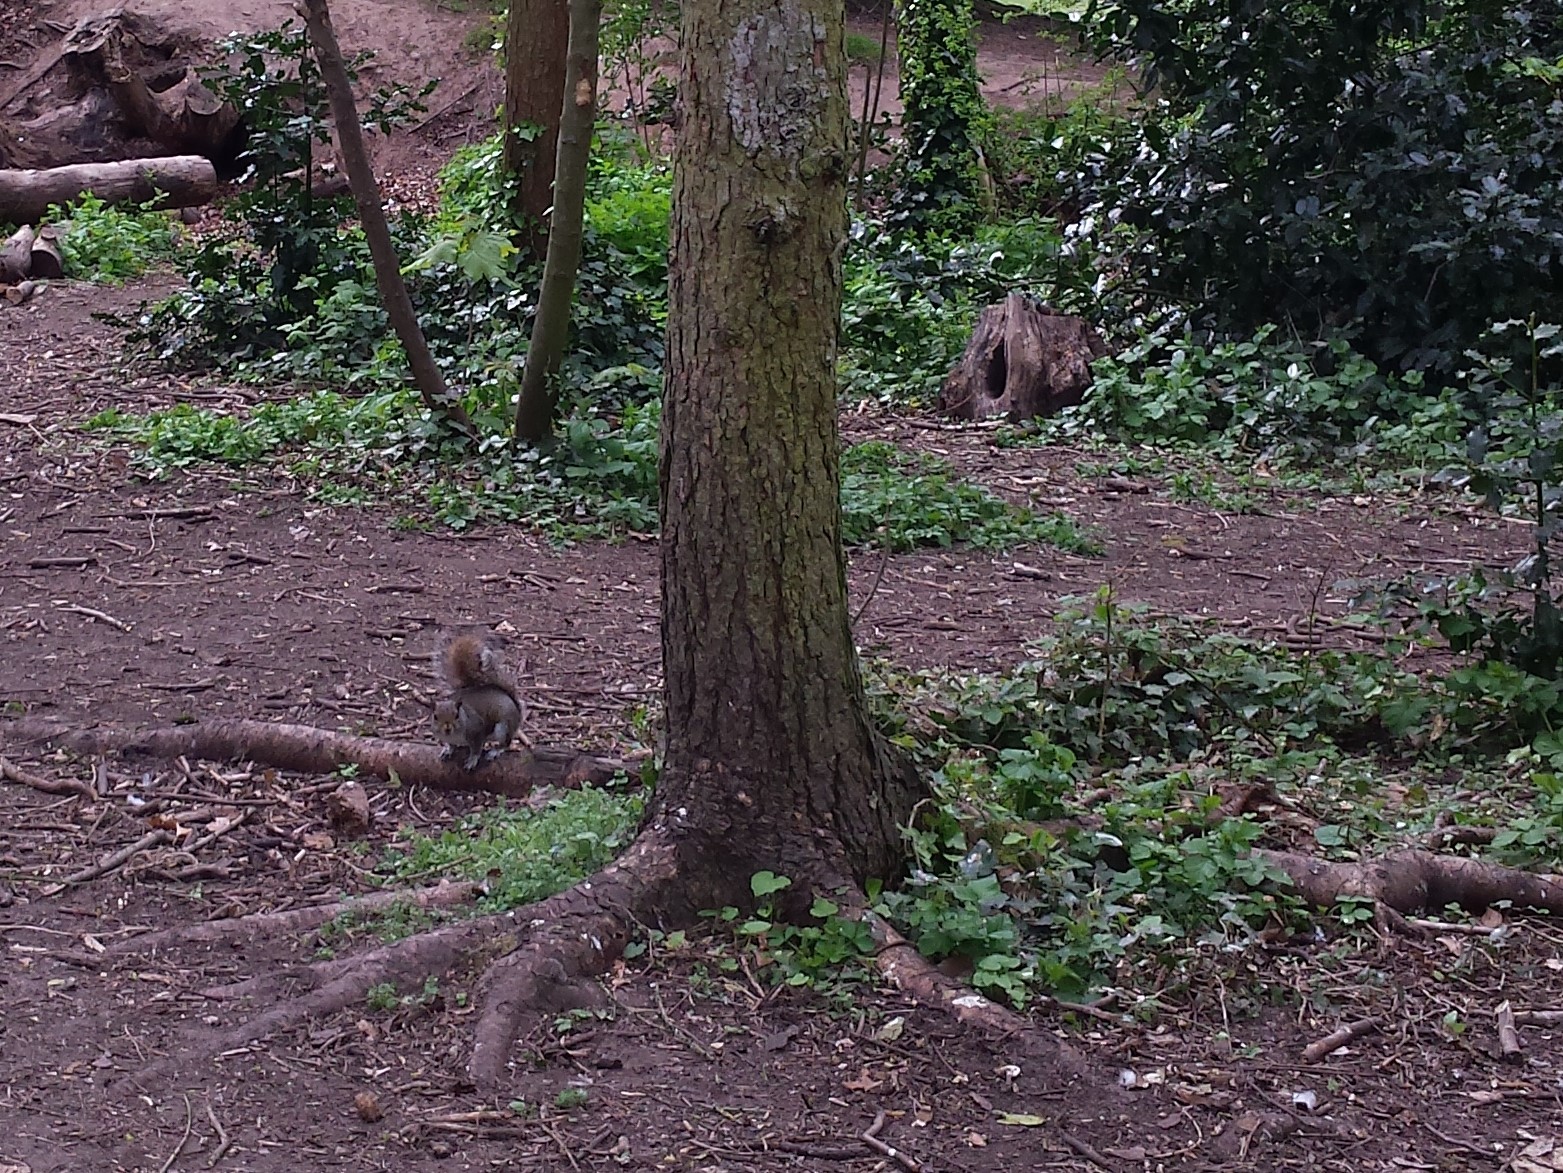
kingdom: Animalia
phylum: Chordata
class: Mammalia
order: Rodentia
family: Sciuridae
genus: Sciurus
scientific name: Sciurus carolinensis
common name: Eastern gray squirrel
